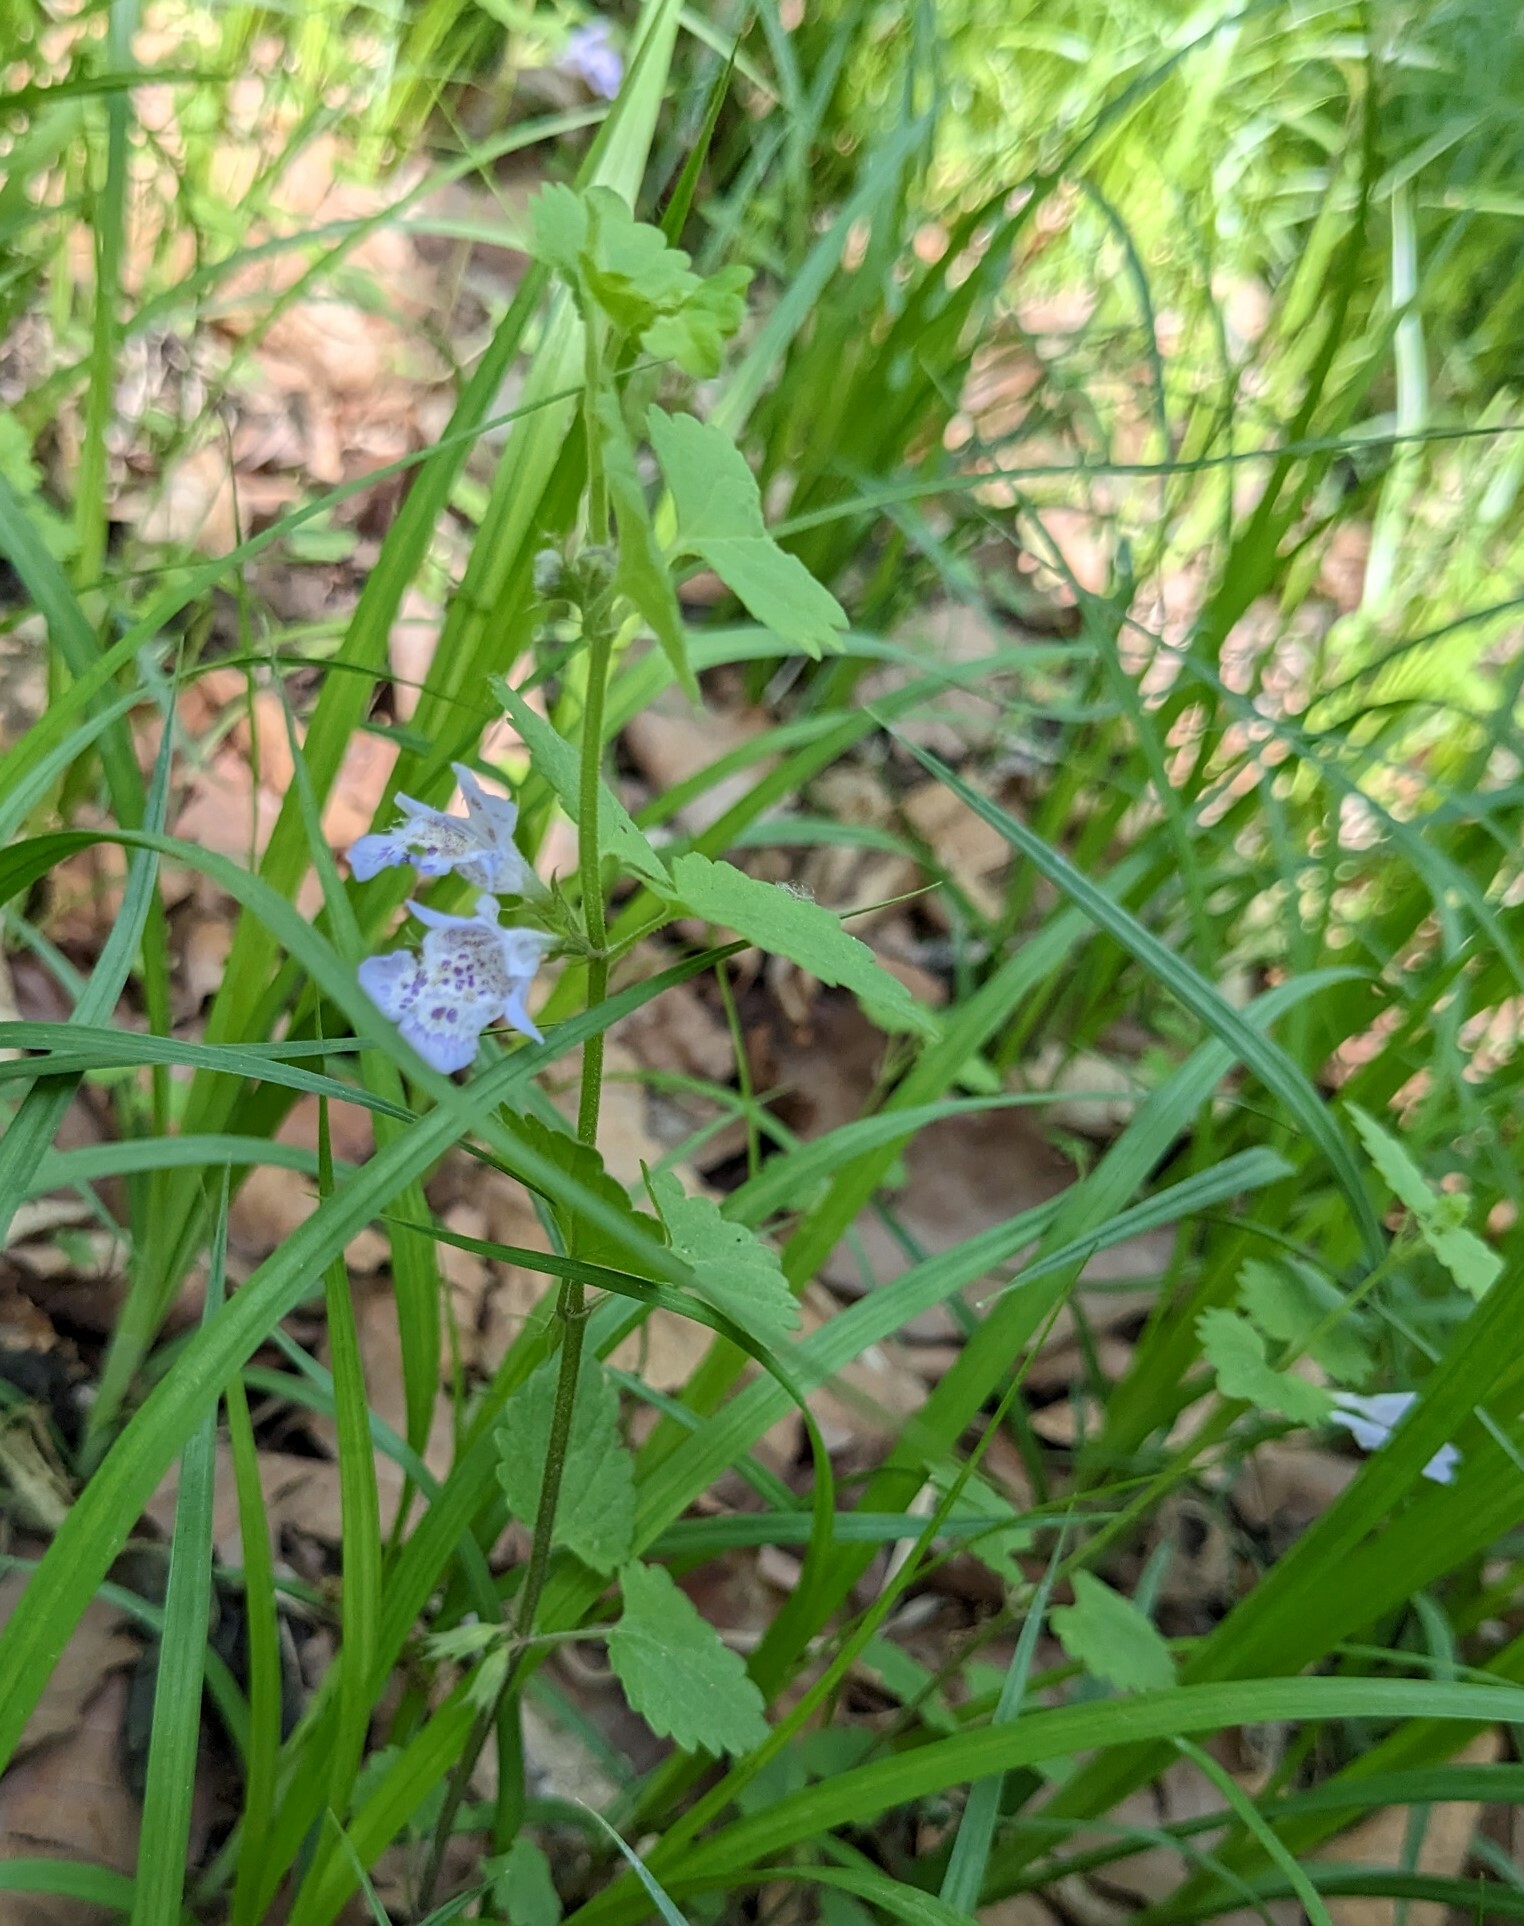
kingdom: Plantae
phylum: Tracheophyta
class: Magnoliopsida
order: Lamiales
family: Lamiaceae
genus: Glechoma
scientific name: Glechoma longituba
